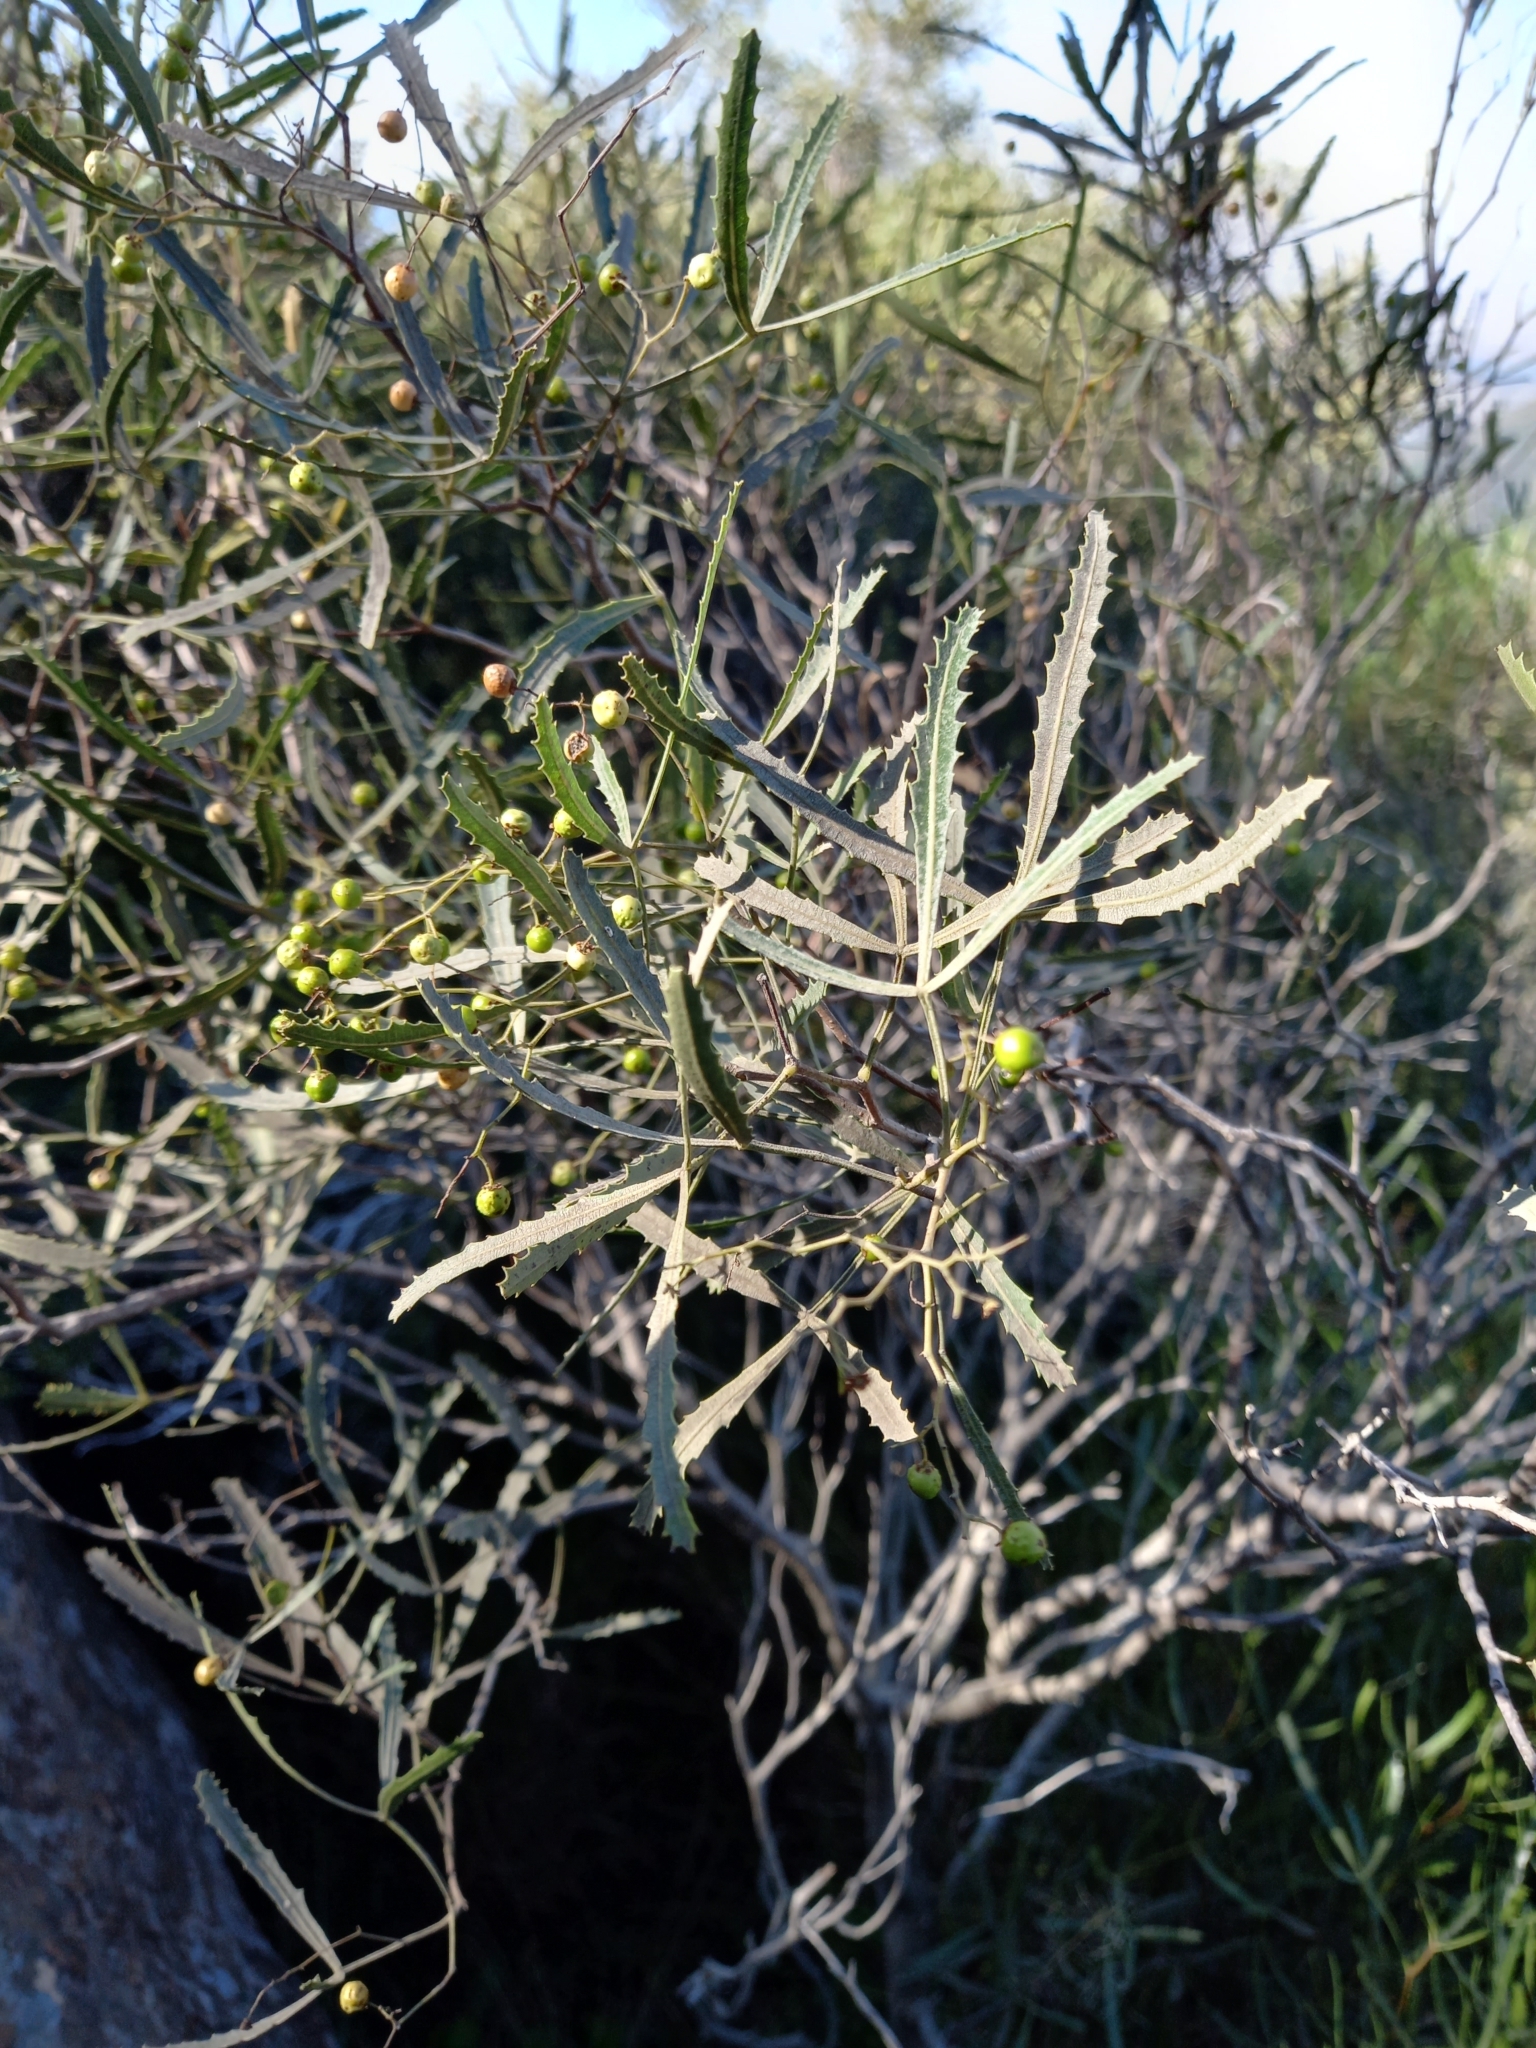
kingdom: Plantae
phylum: Tracheophyta
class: Magnoliopsida
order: Sapindales
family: Anacardiaceae
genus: Searsia
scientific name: Searsia erosa
